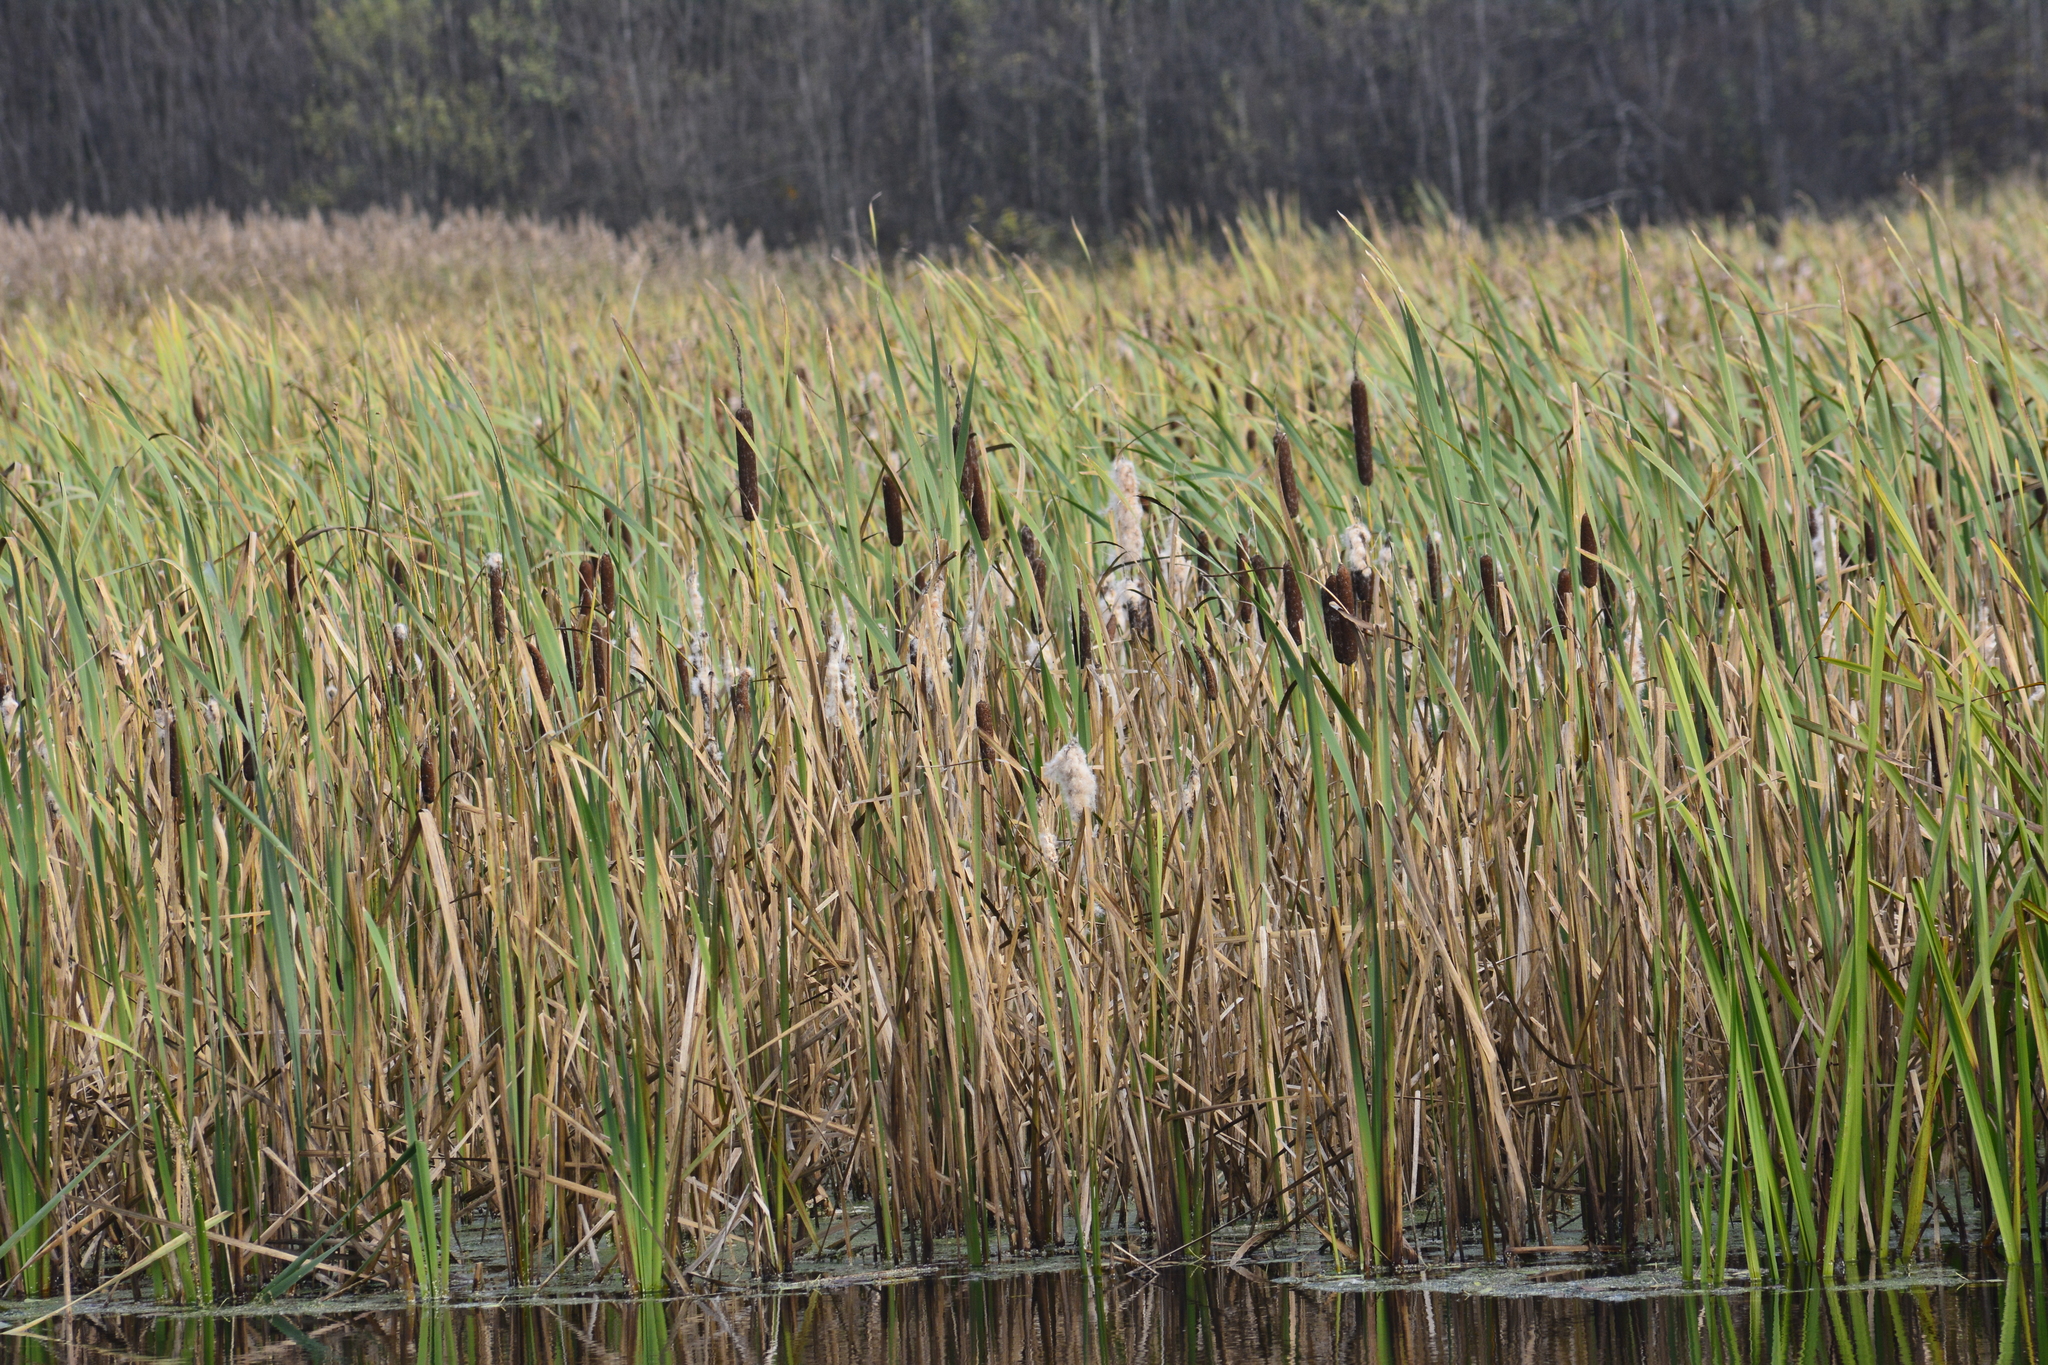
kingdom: Plantae
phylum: Tracheophyta
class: Liliopsida
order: Poales
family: Typhaceae
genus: Typha
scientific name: Typha latifolia
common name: Broadleaf cattail
